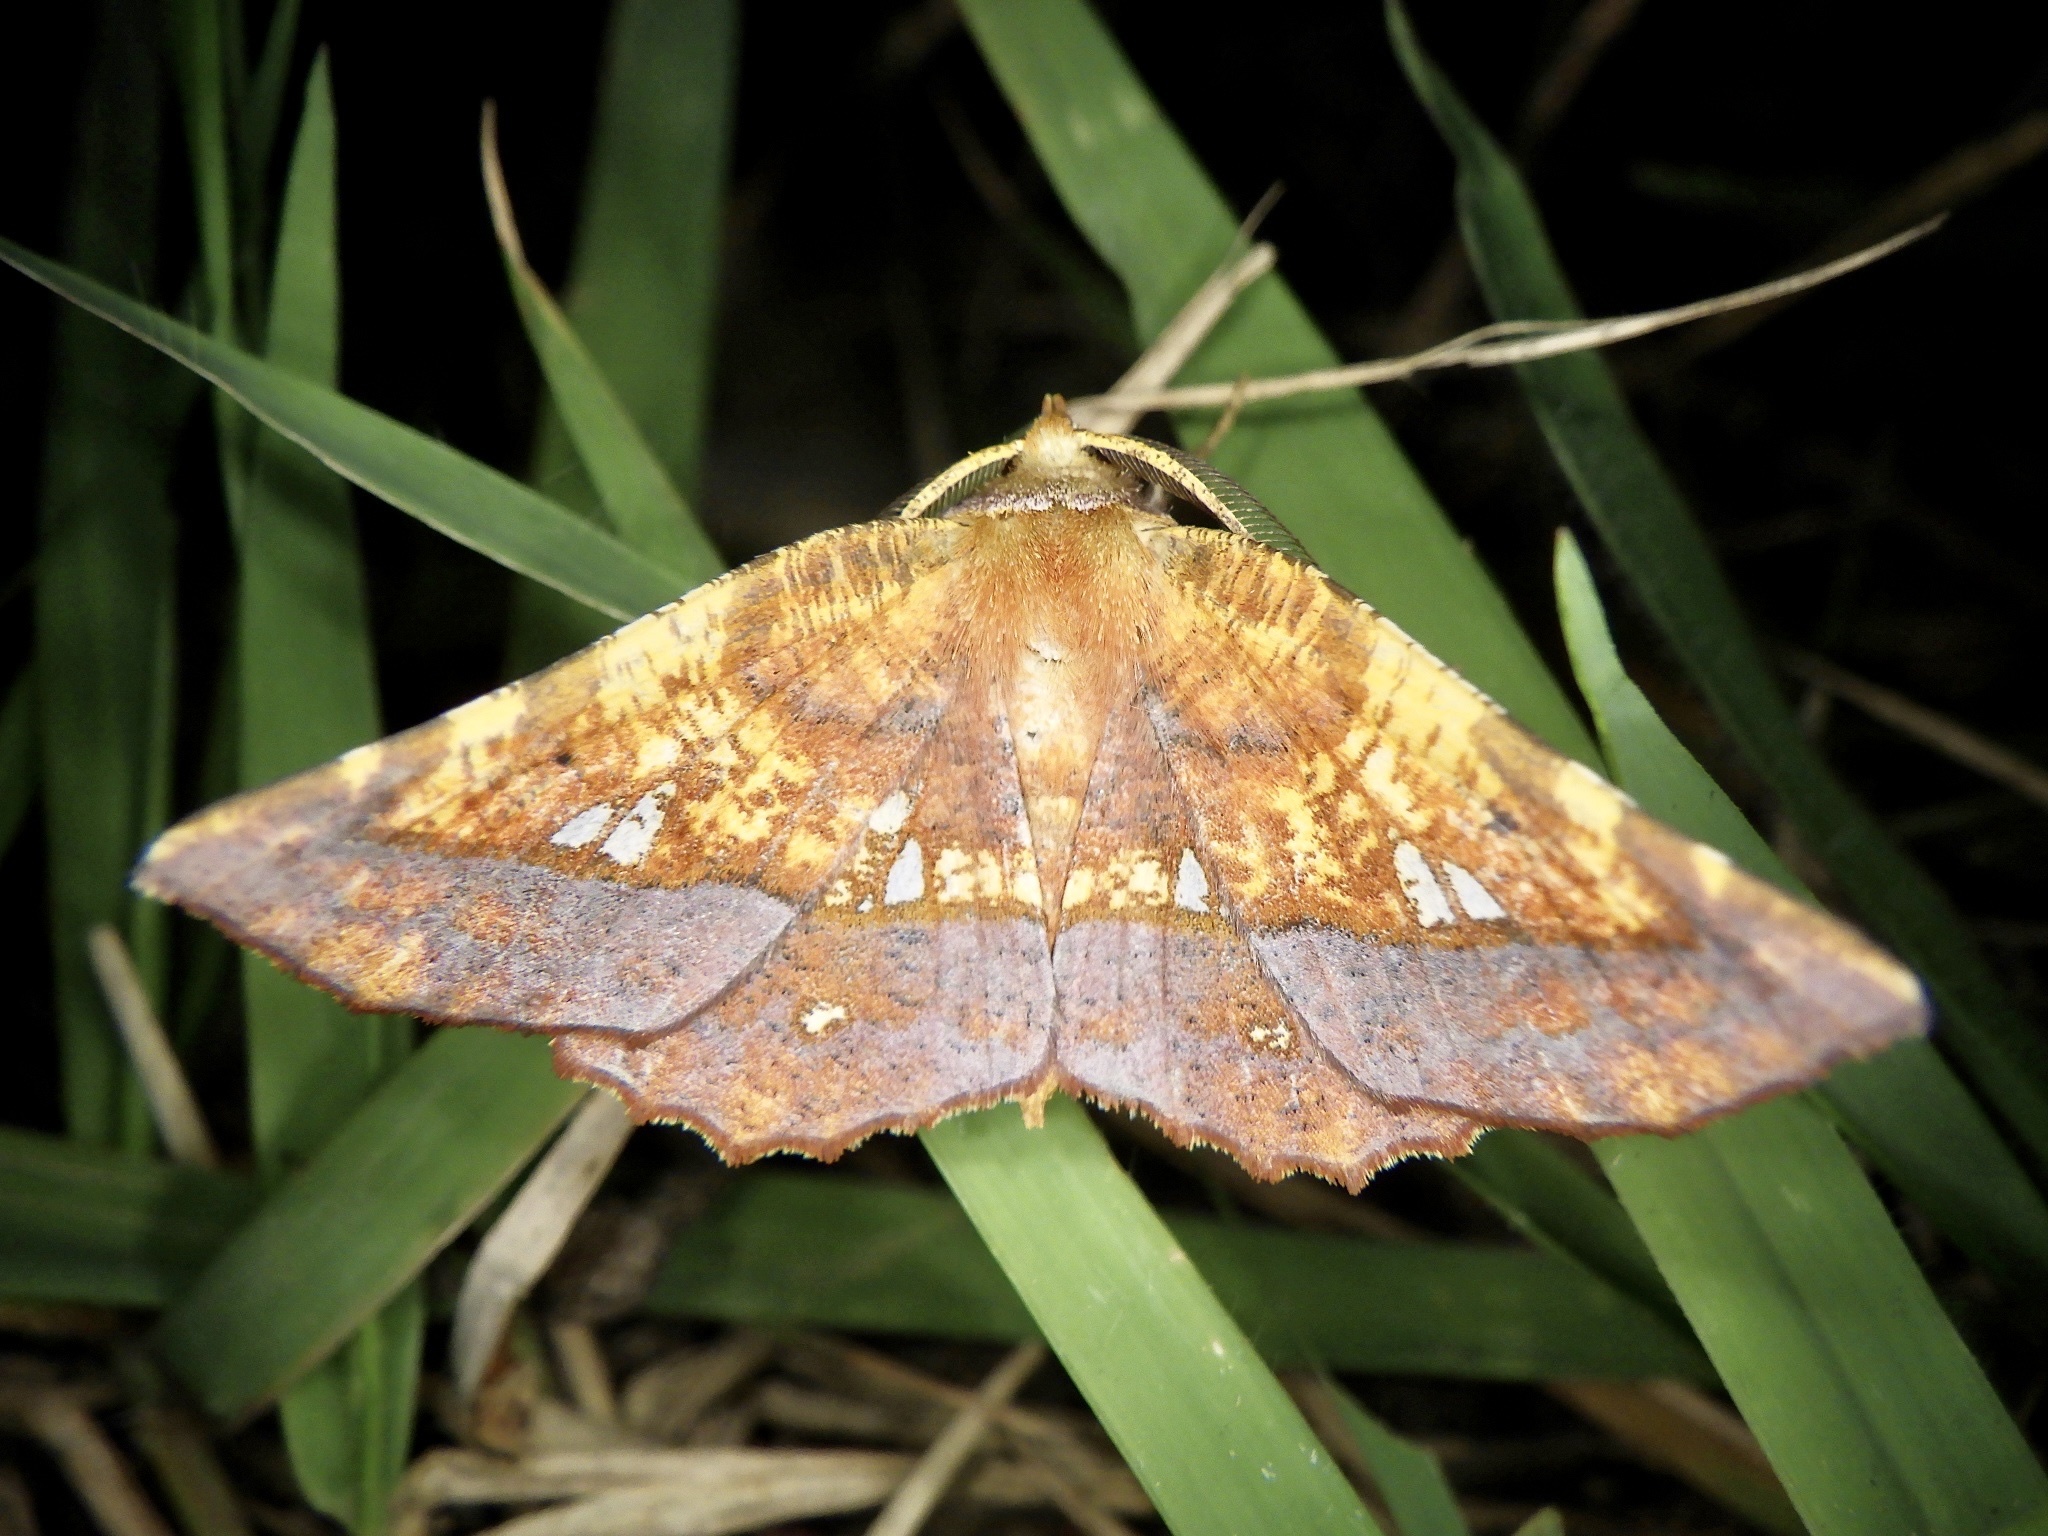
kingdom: Animalia
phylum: Arthropoda
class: Insecta
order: Lepidoptera
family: Geometridae
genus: Garaeus
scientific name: Garaeus specularis
